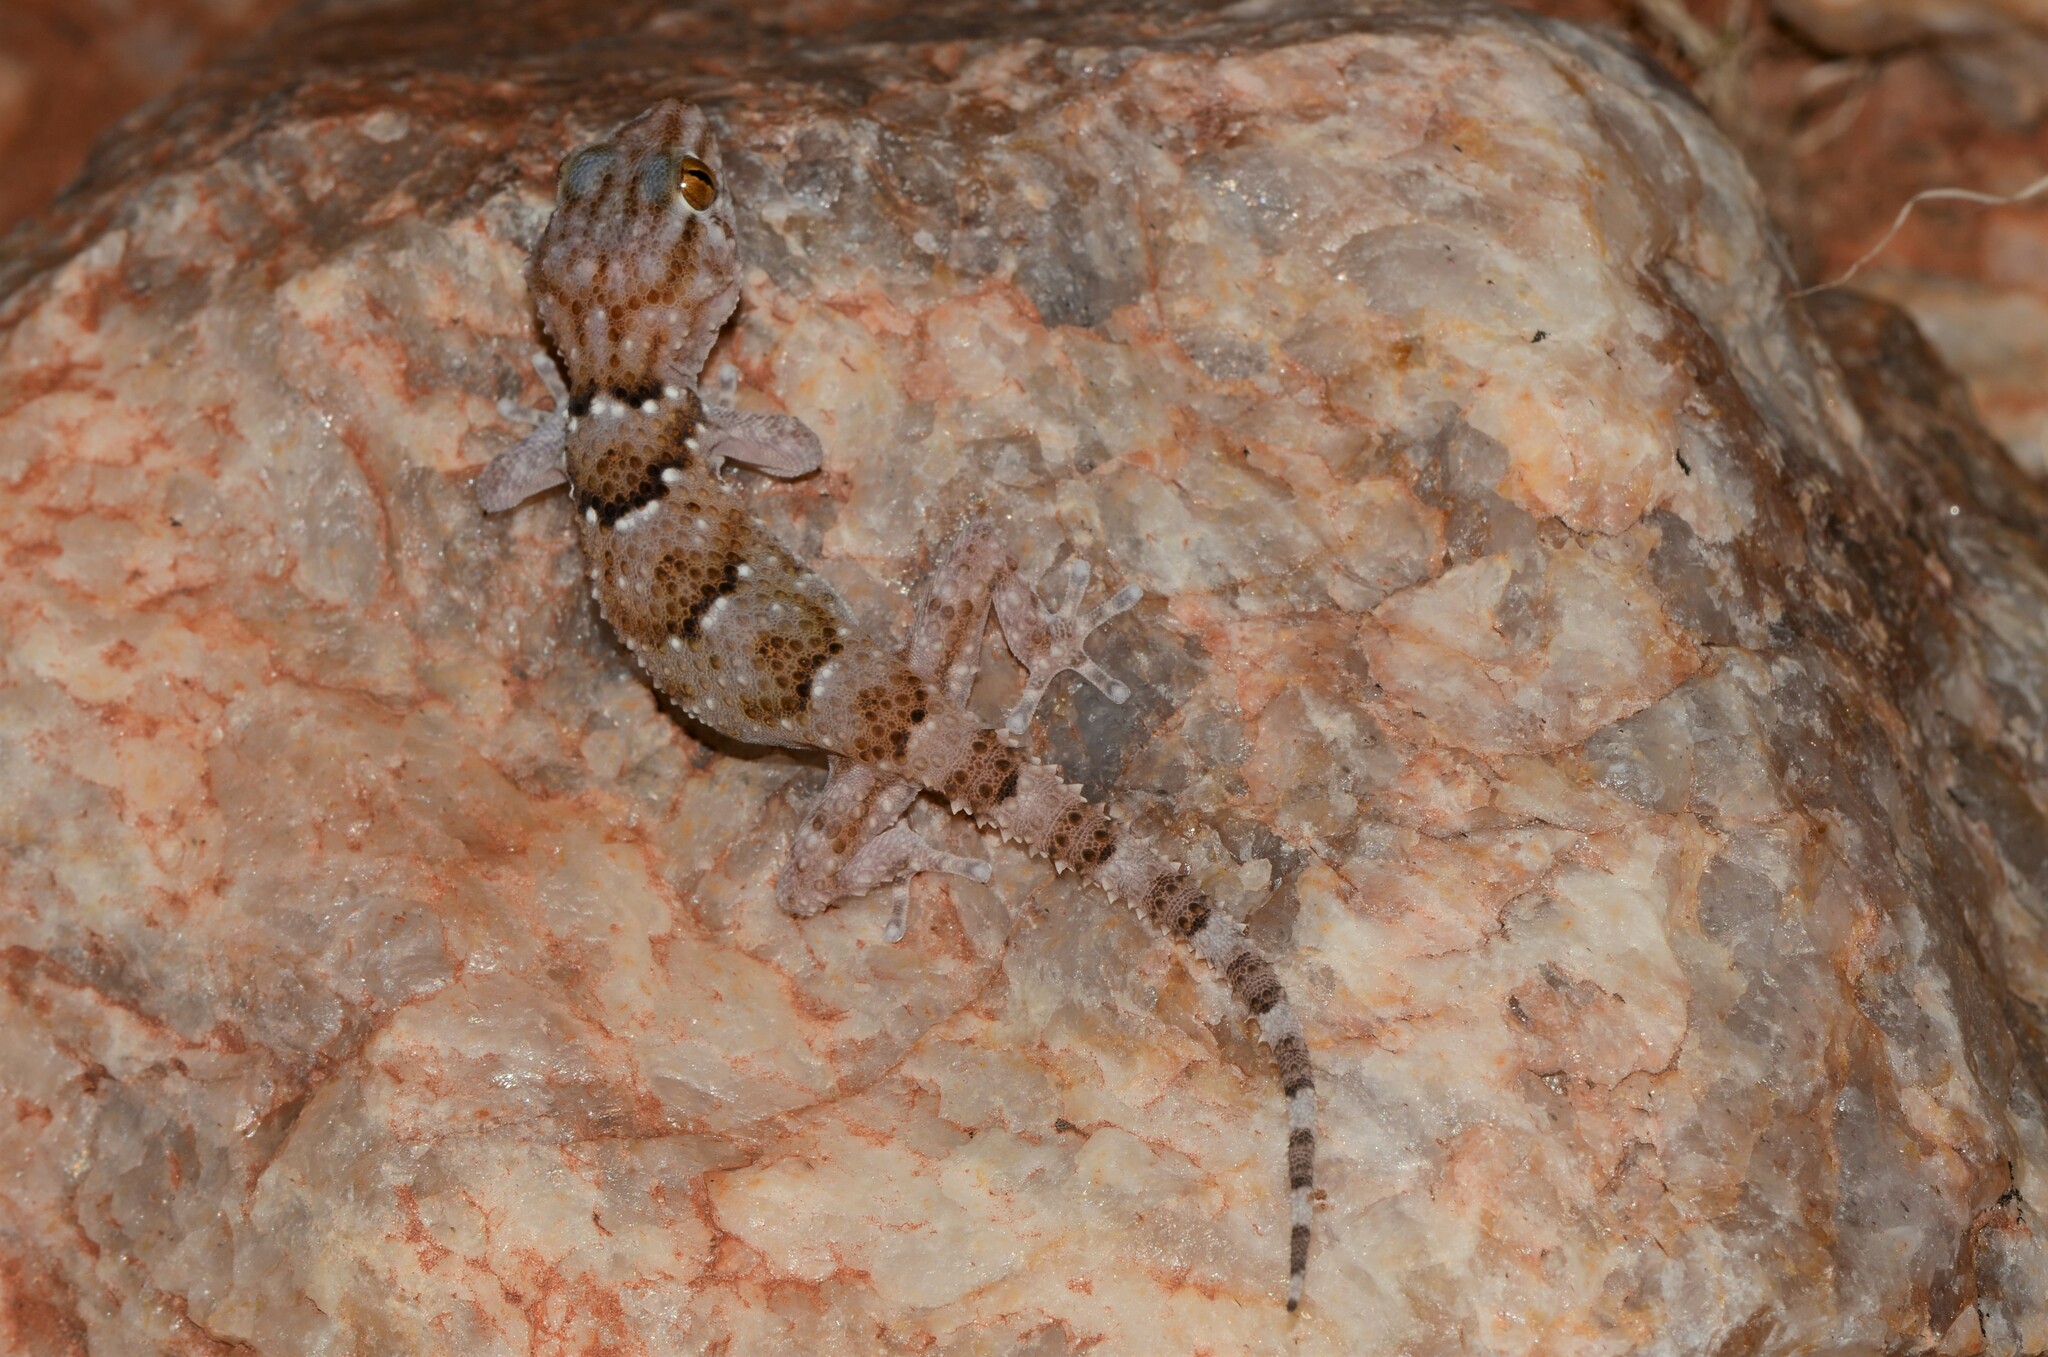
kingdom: Animalia
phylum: Chordata
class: Squamata
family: Gekkonidae
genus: Chondrodactylus
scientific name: Chondrodactylus laevigatus
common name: Fischer's thick-toed gecko
